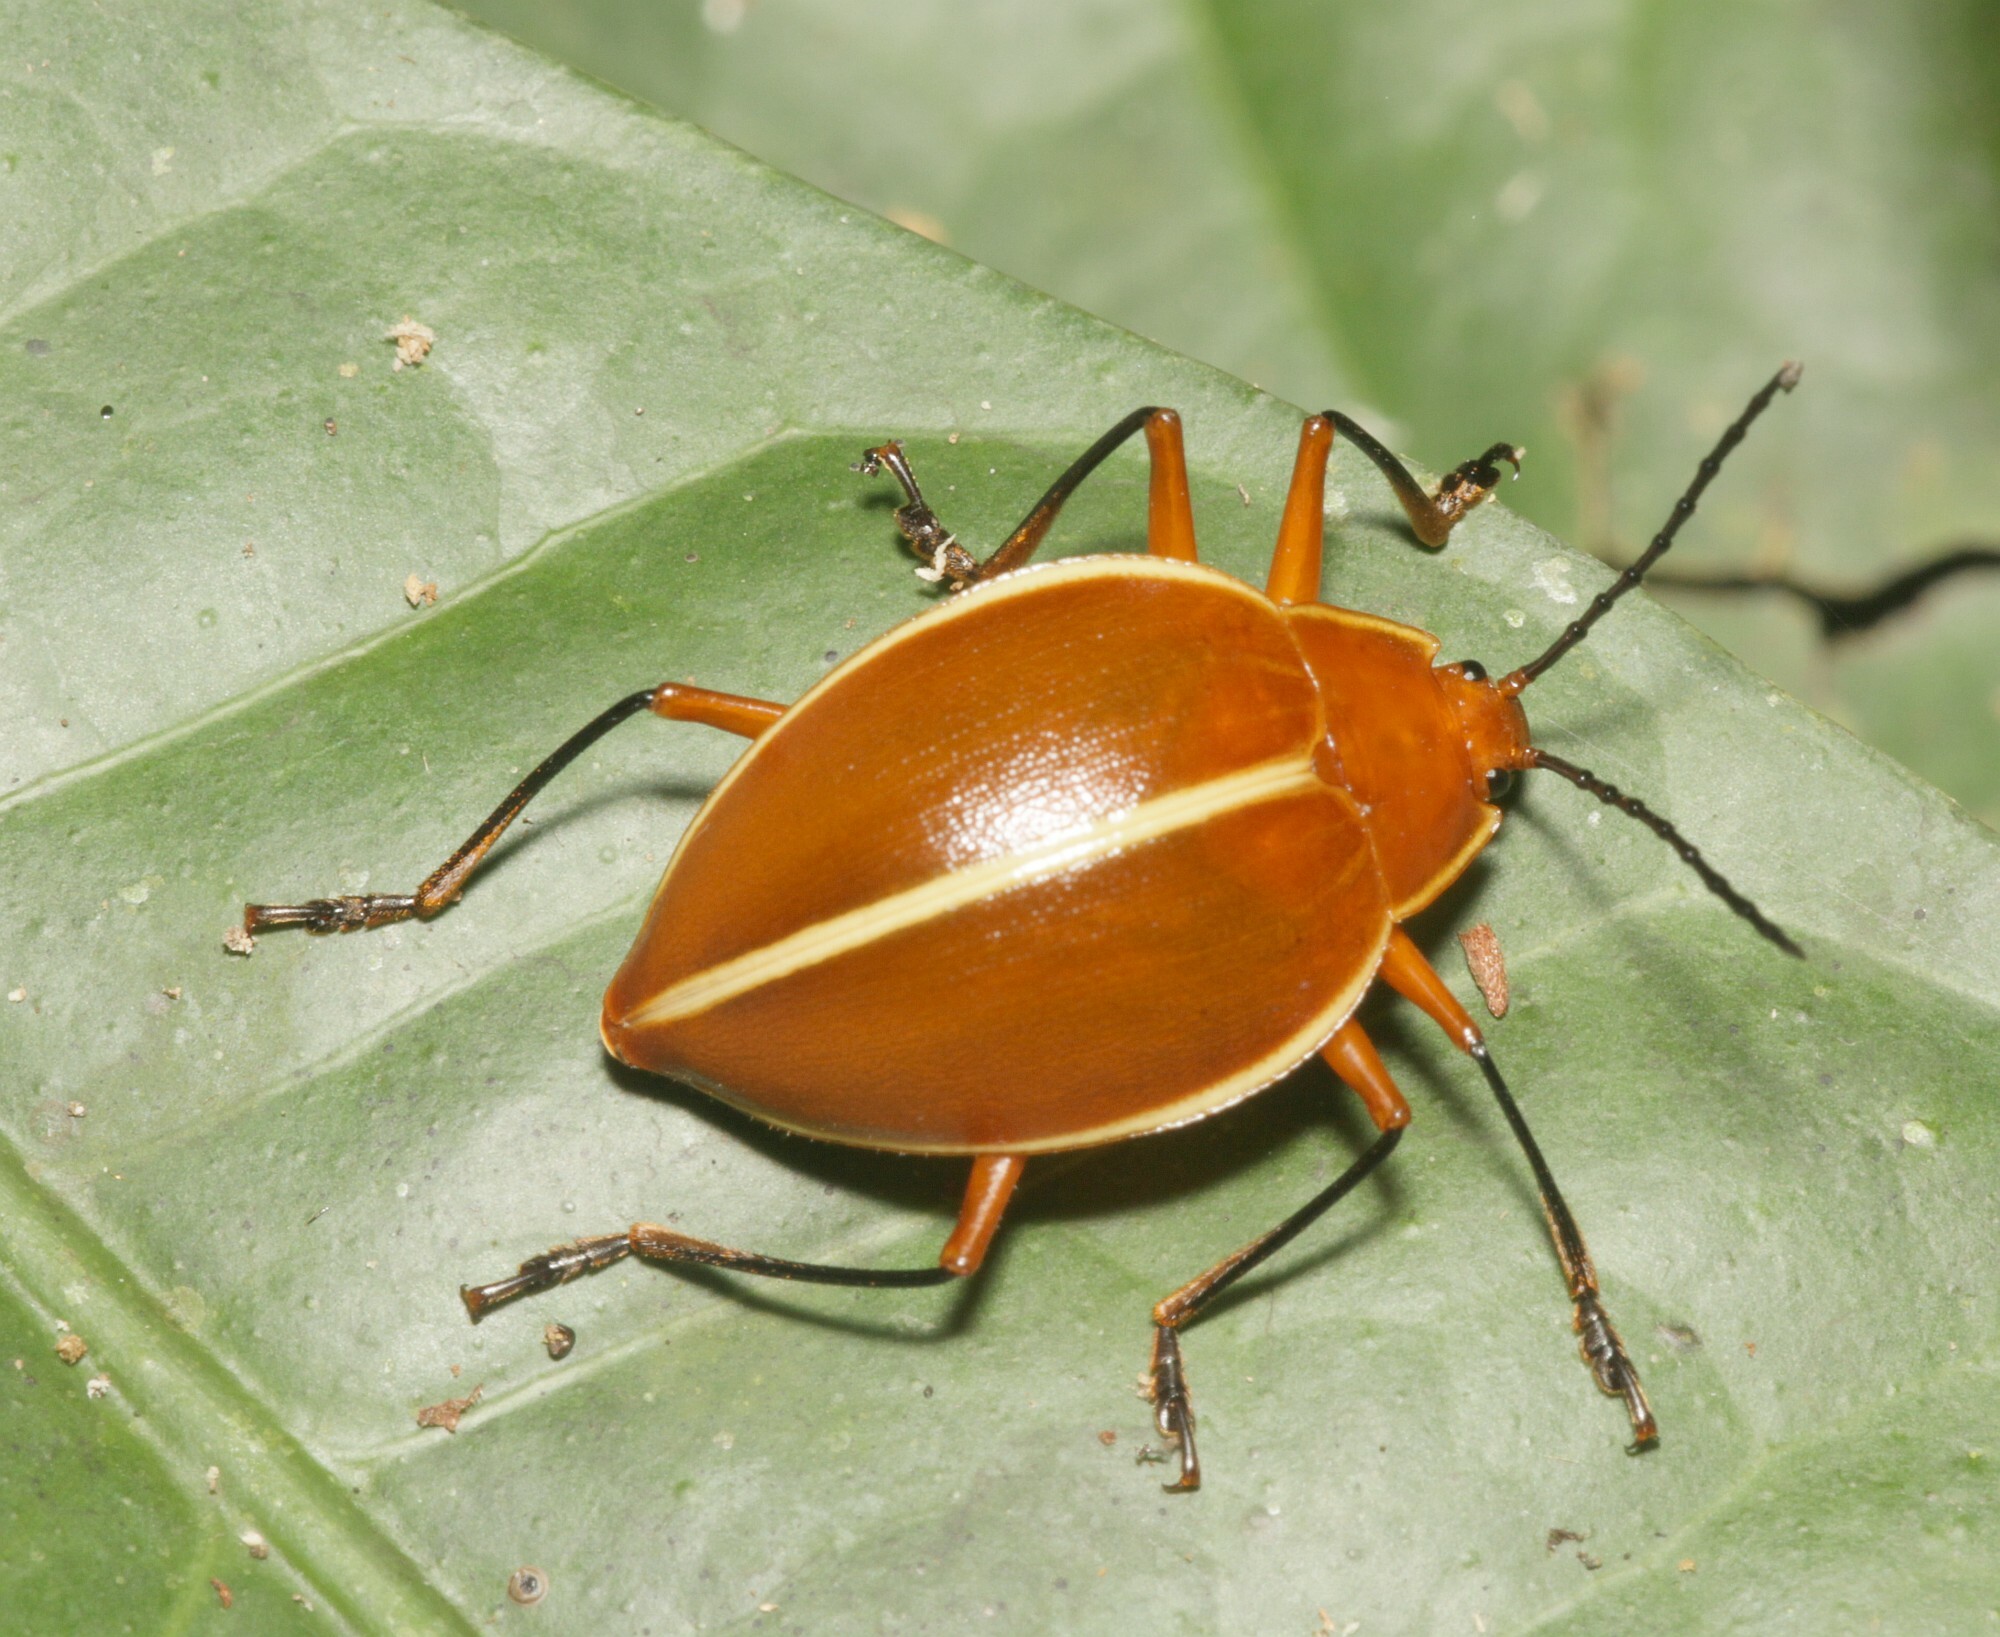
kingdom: Animalia
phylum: Arthropoda
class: Insecta
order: Coleoptera
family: Erotylidae
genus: Ellipticus
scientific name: Ellipticus
